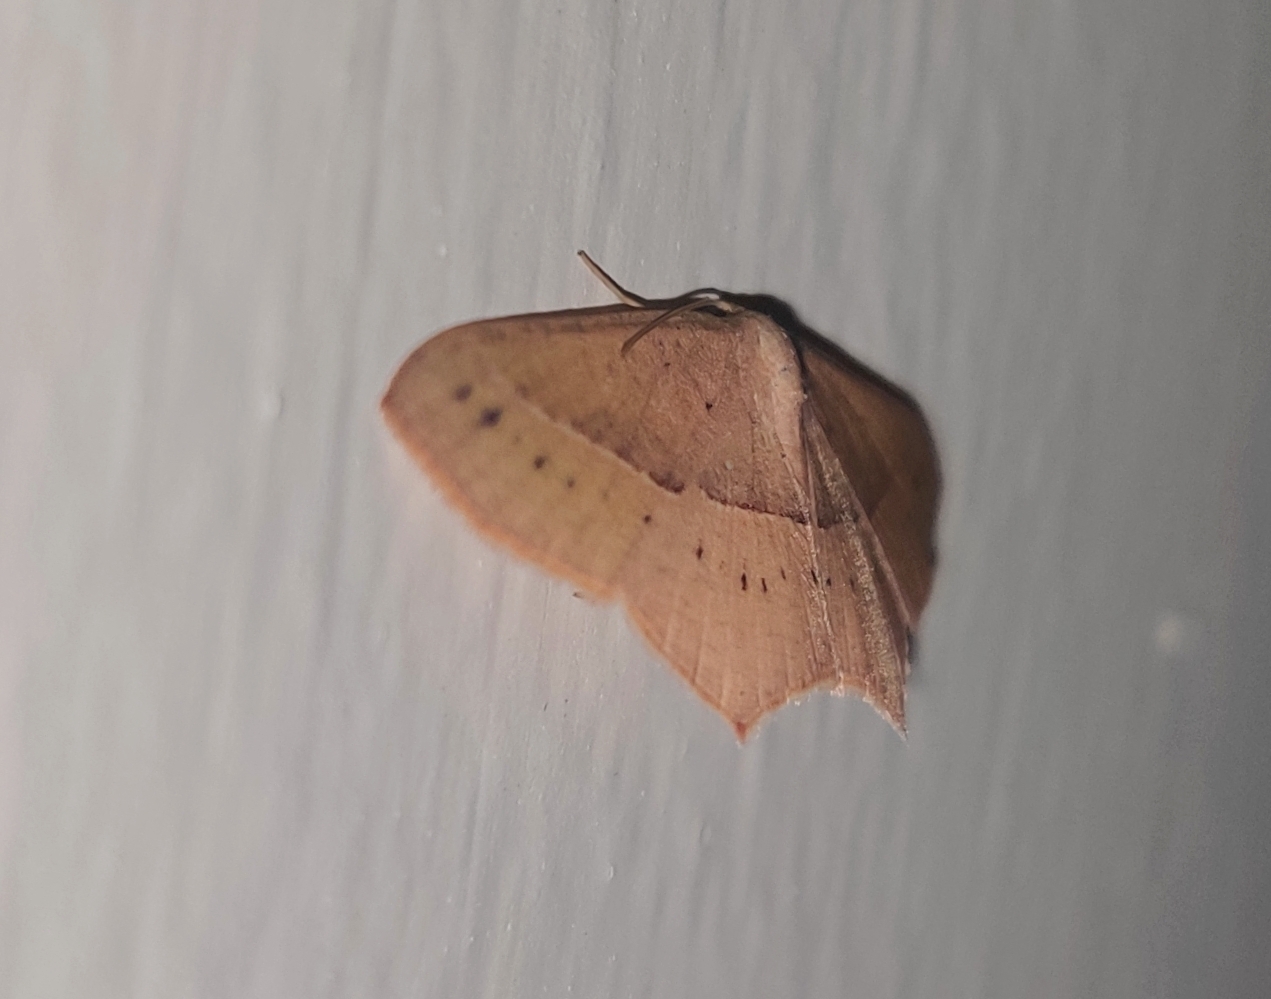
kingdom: Animalia
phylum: Arthropoda
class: Insecta
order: Lepidoptera
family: Geometridae
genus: Traminda
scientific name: Traminda mundissima
